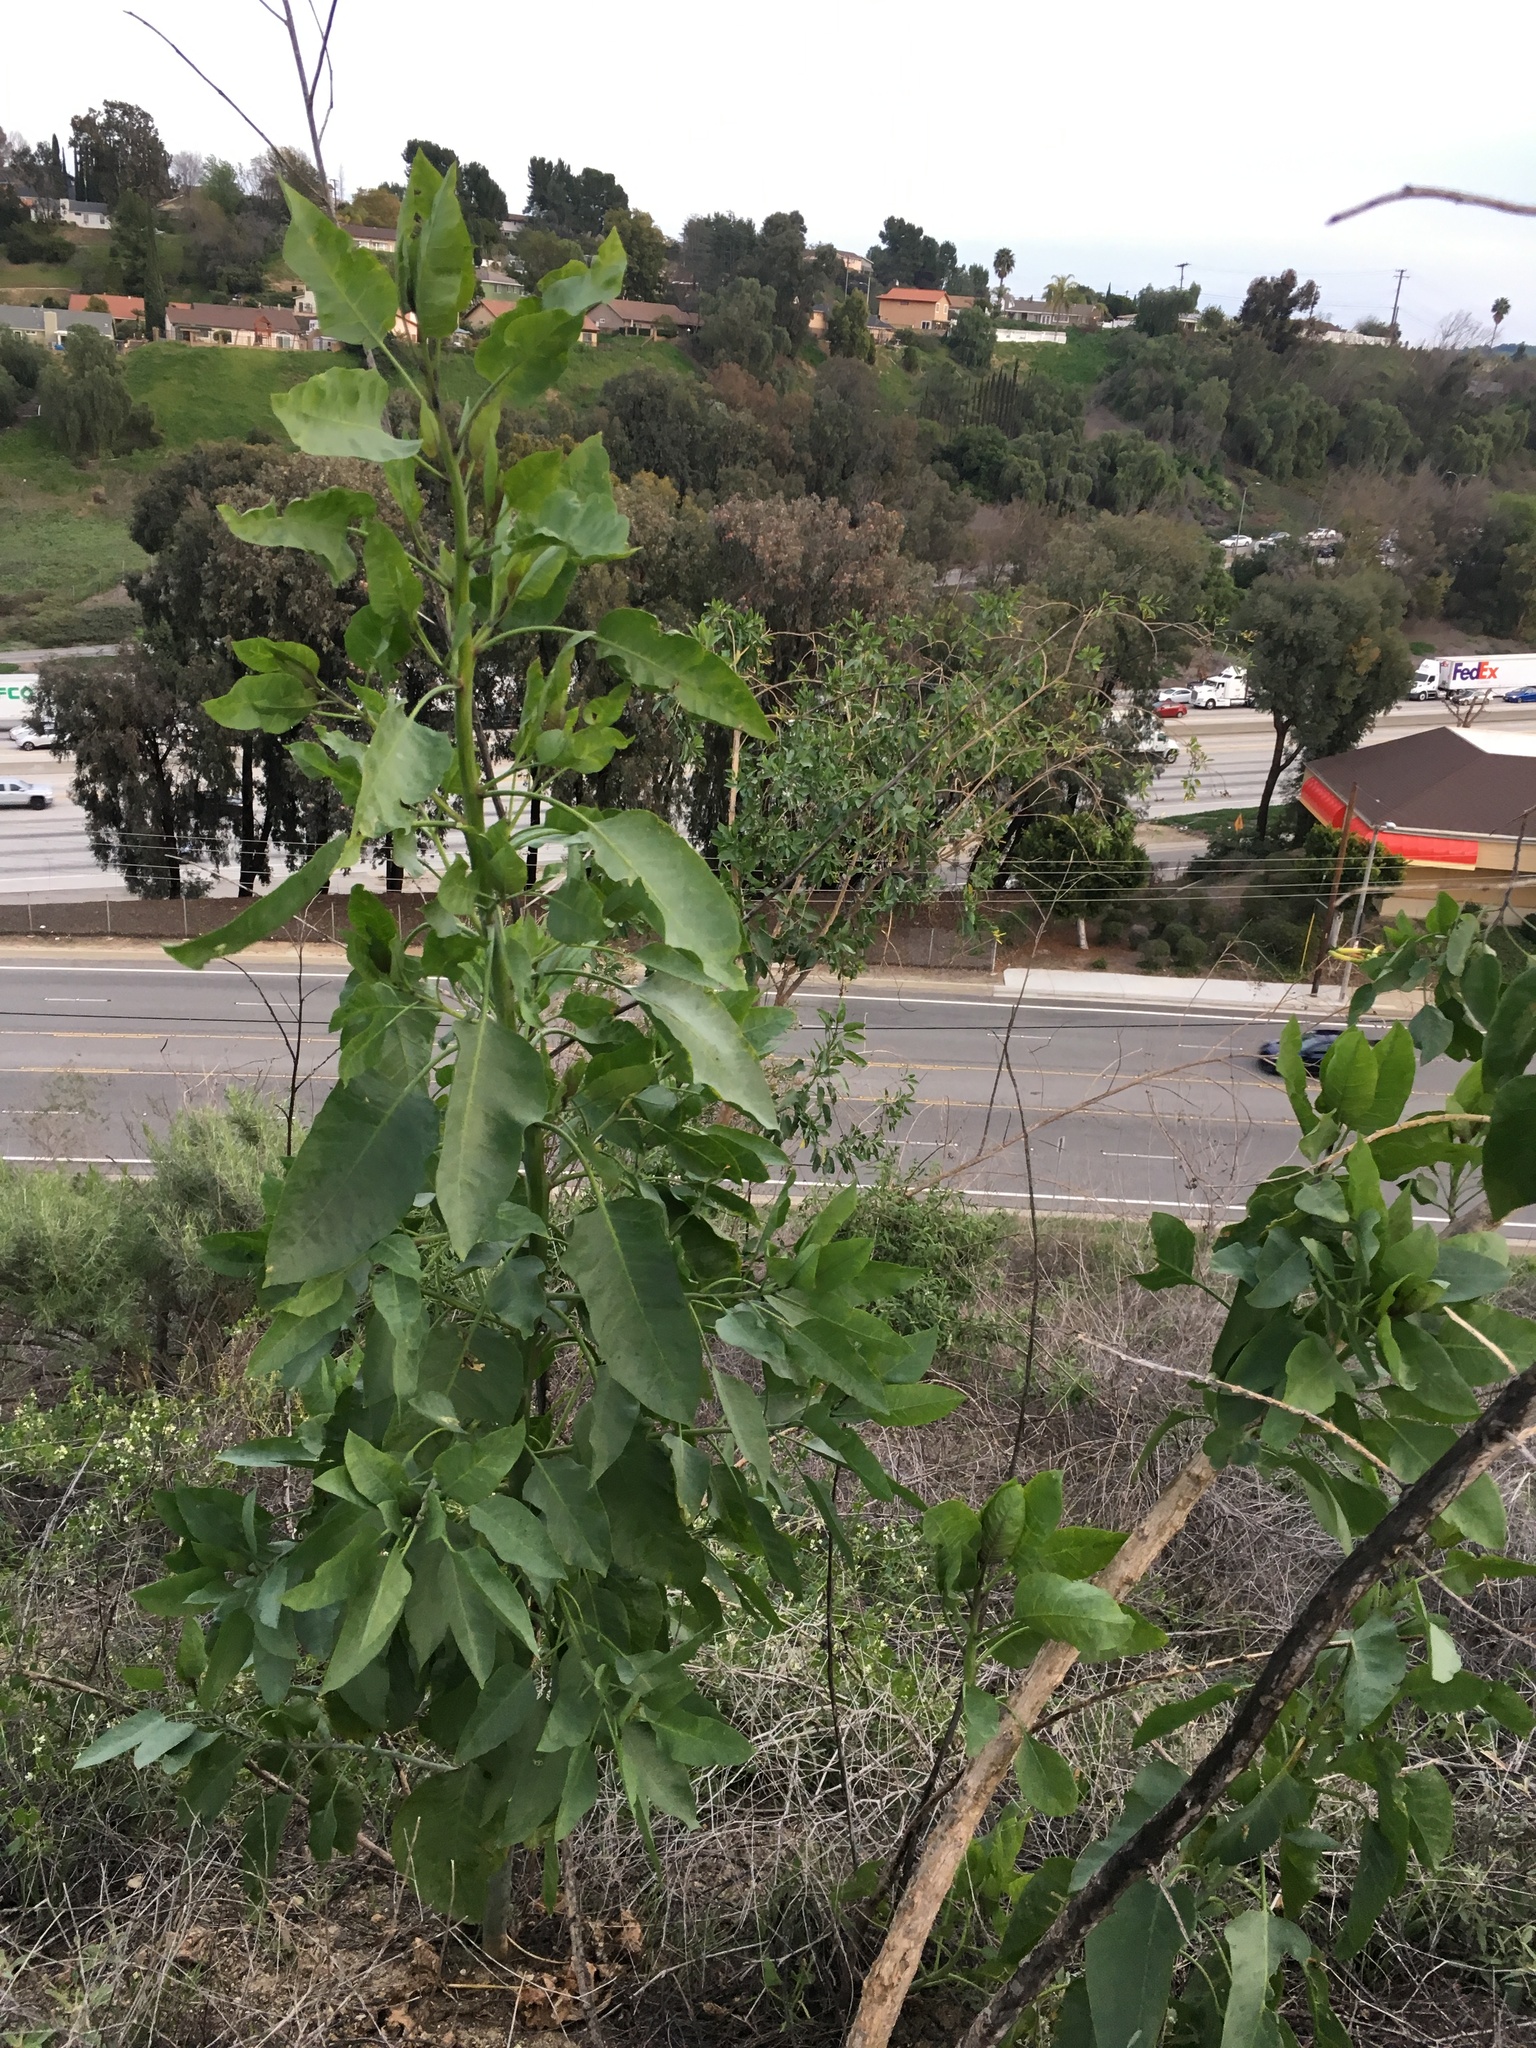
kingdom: Plantae
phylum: Tracheophyta
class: Magnoliopsida
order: Solanales
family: Solanaceae
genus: Nicotiana
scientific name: Nicotiana glauca
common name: Tree tobacco
